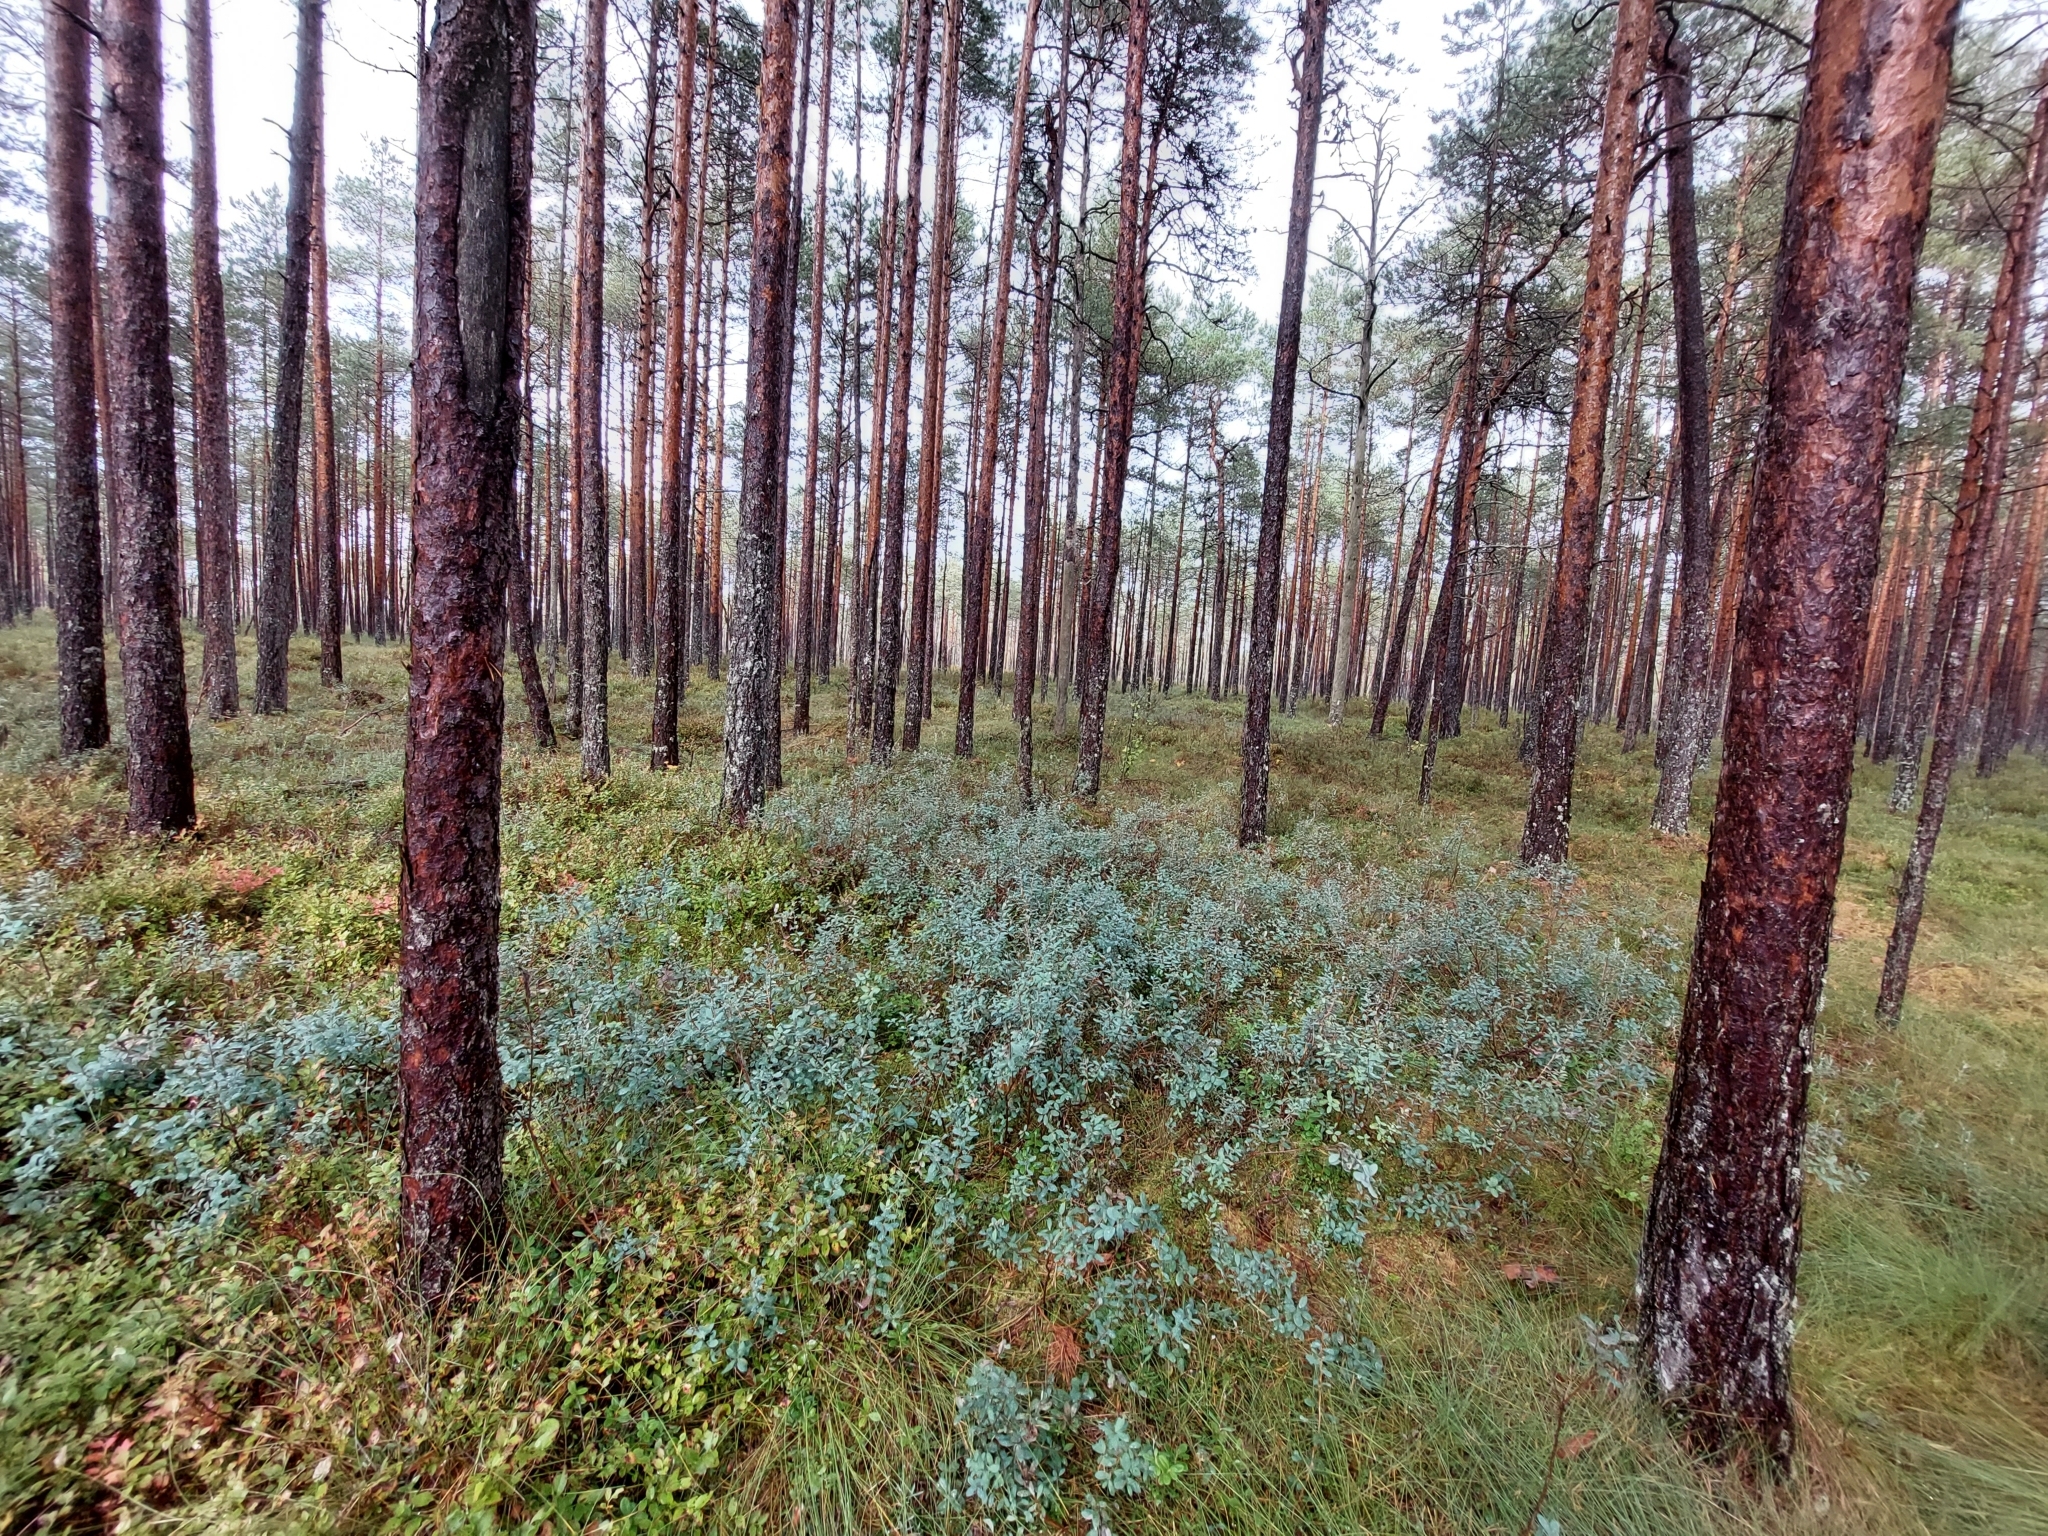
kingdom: Plantae
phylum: Tracheophyta
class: Magnoliopsida
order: Ericales
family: Ericaceae
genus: Vaccinium
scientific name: Vaccinium uliginosum
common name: Bog bilberry
